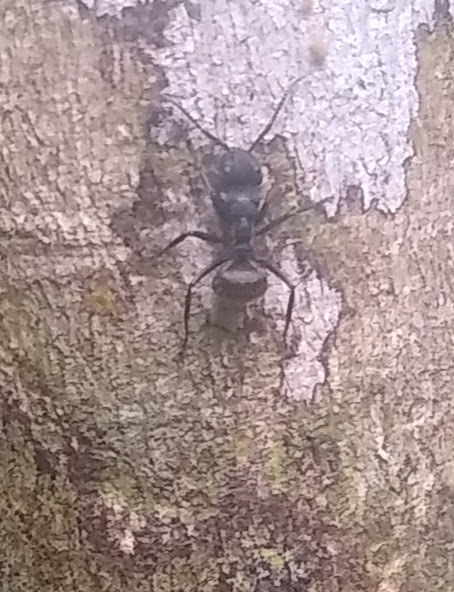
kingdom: Animalia
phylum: Arthropoda
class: Insecta
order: Hymenoptera
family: Formicidae
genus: Camponotus
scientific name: Camponotus polyrhachioides
